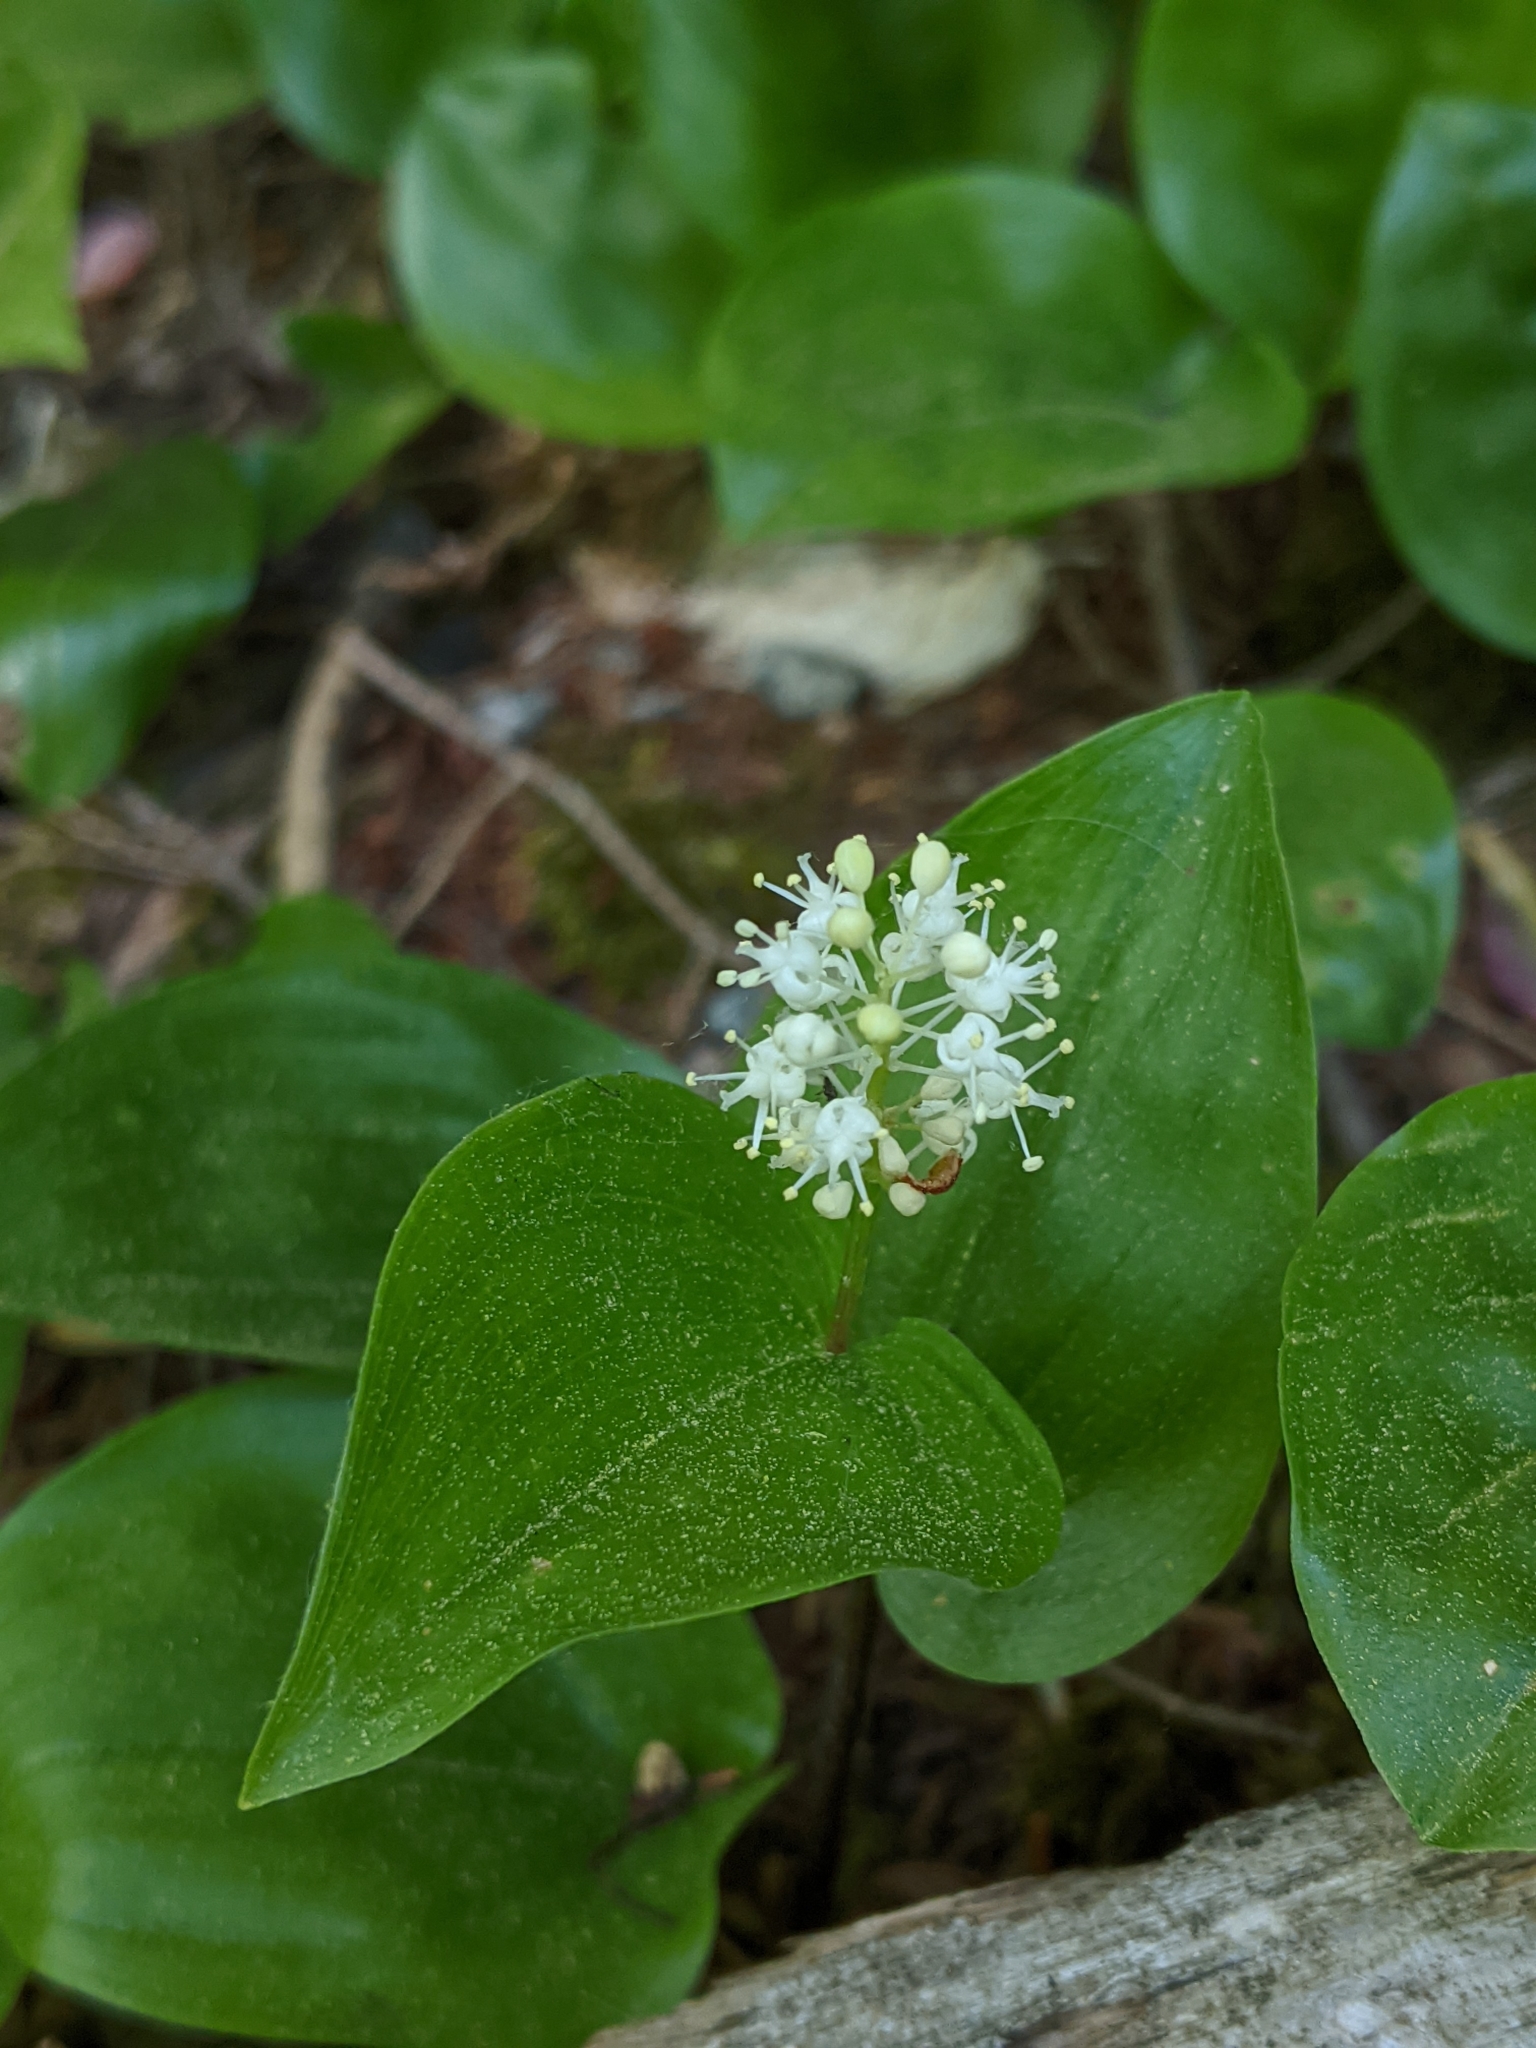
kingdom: Plantae
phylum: Tracheophyta
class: Liliopsida
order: Asparagales
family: Asparagaceae
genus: Maianthemum
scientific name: Maianthemum canadense
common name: False lily-of-the-valley
